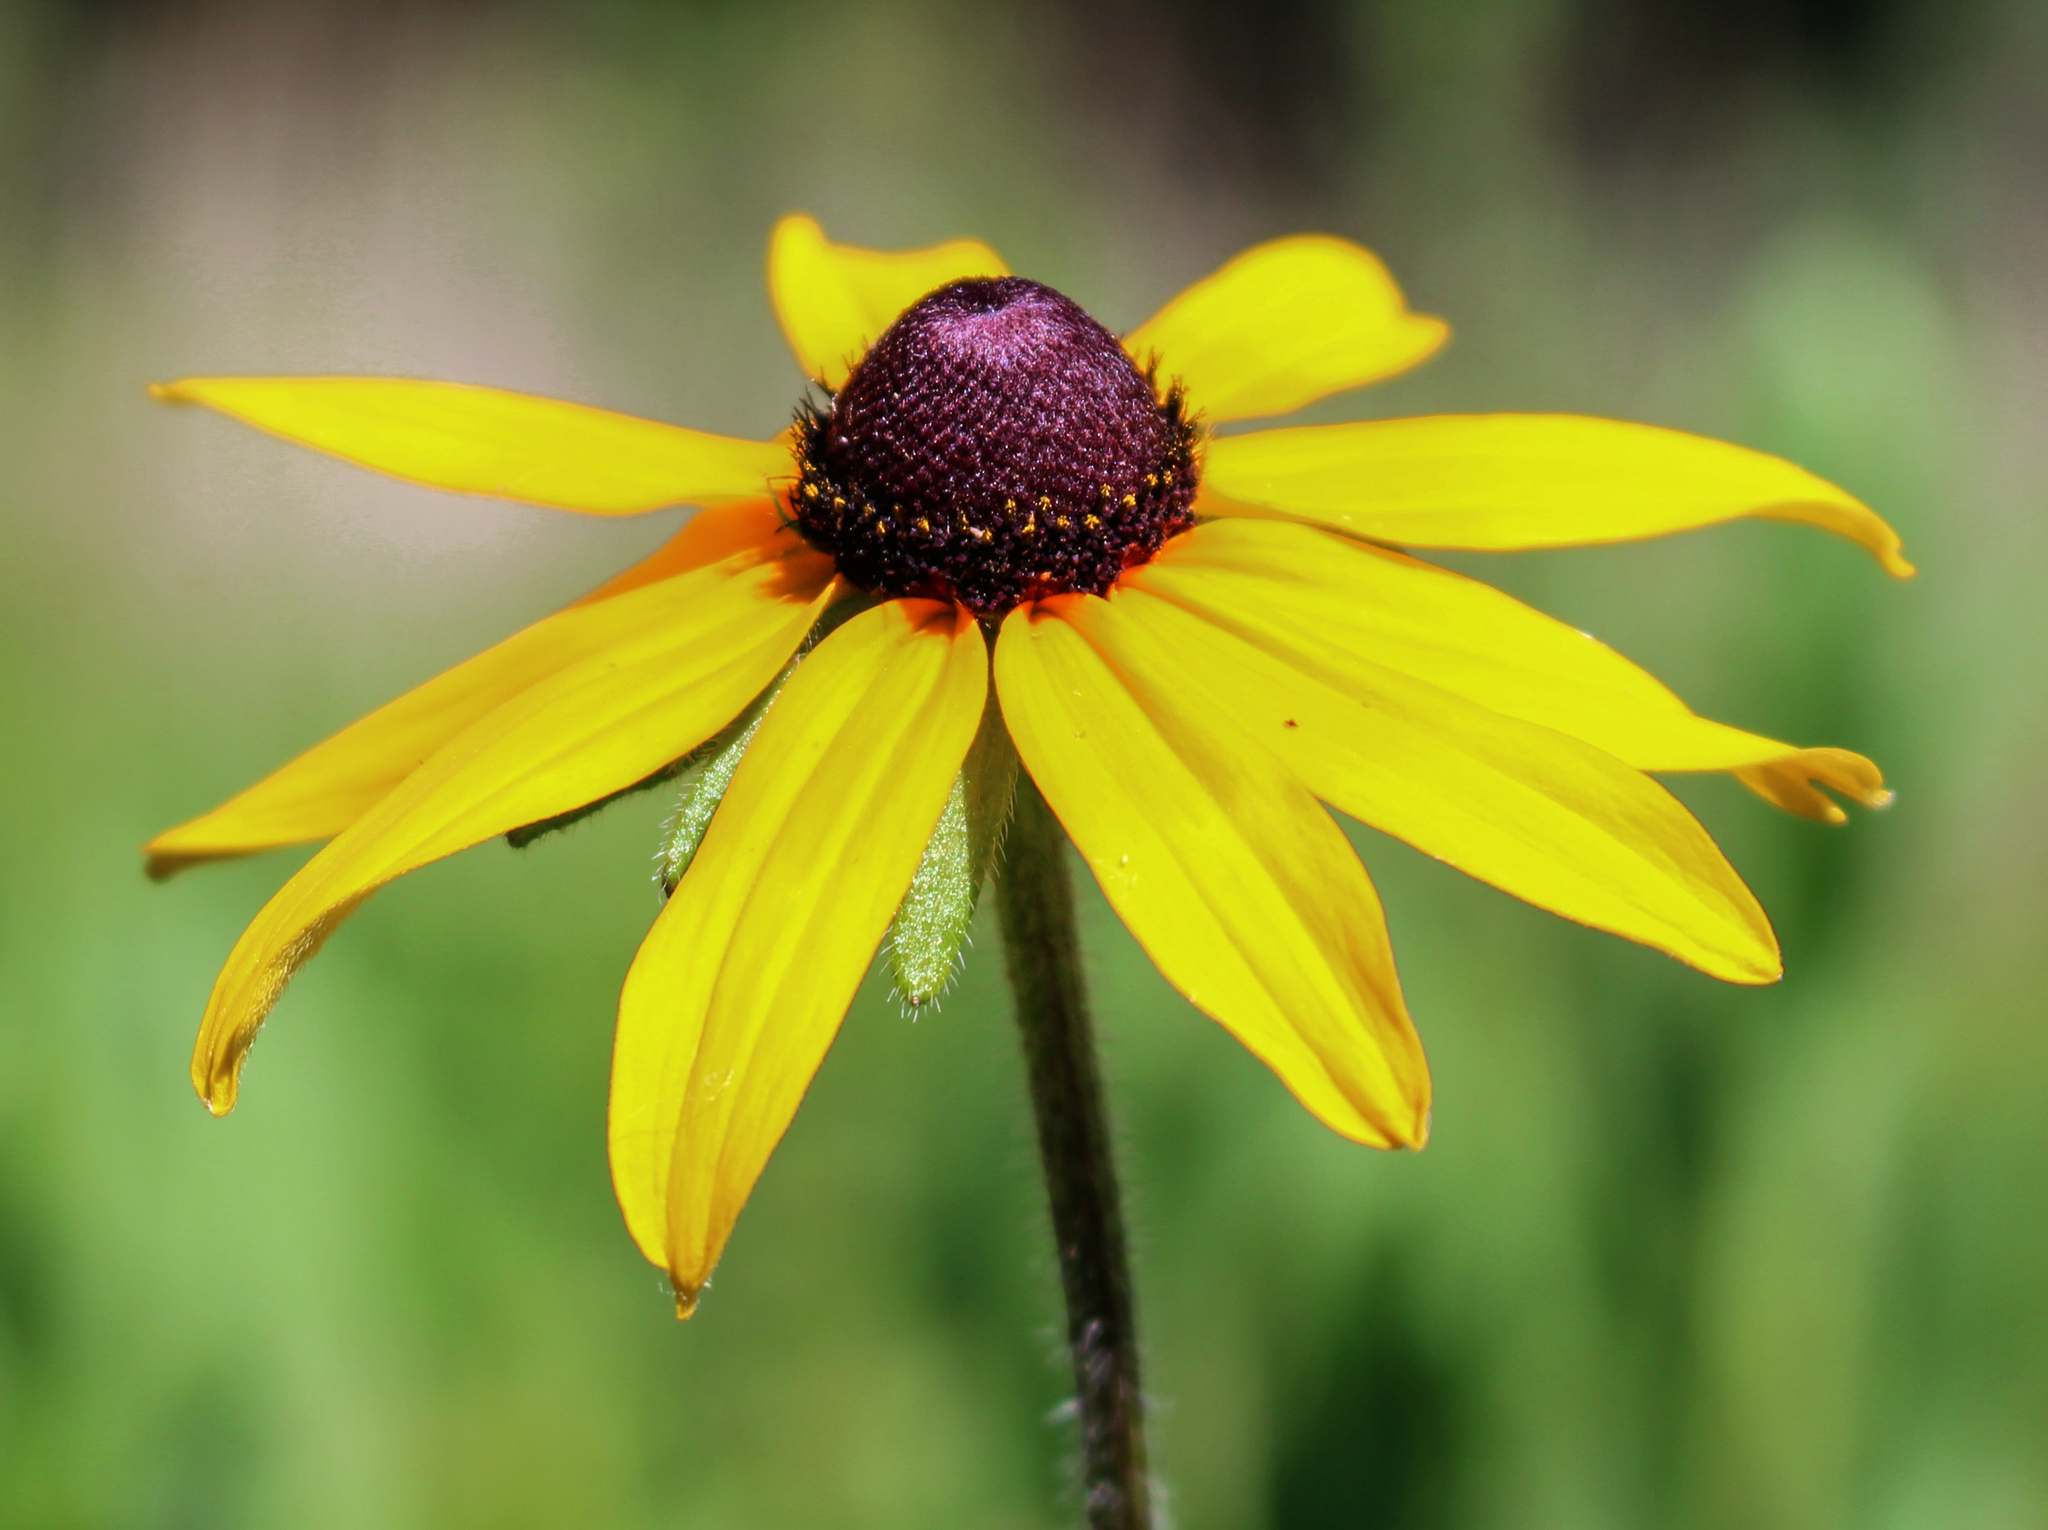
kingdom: Plantae
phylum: Tracheophyta
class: Magnoliopsida
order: Asterales
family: Asteraceae
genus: Rudbeckia
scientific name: Rudbeckia hirta
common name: Black-eyed-susan
